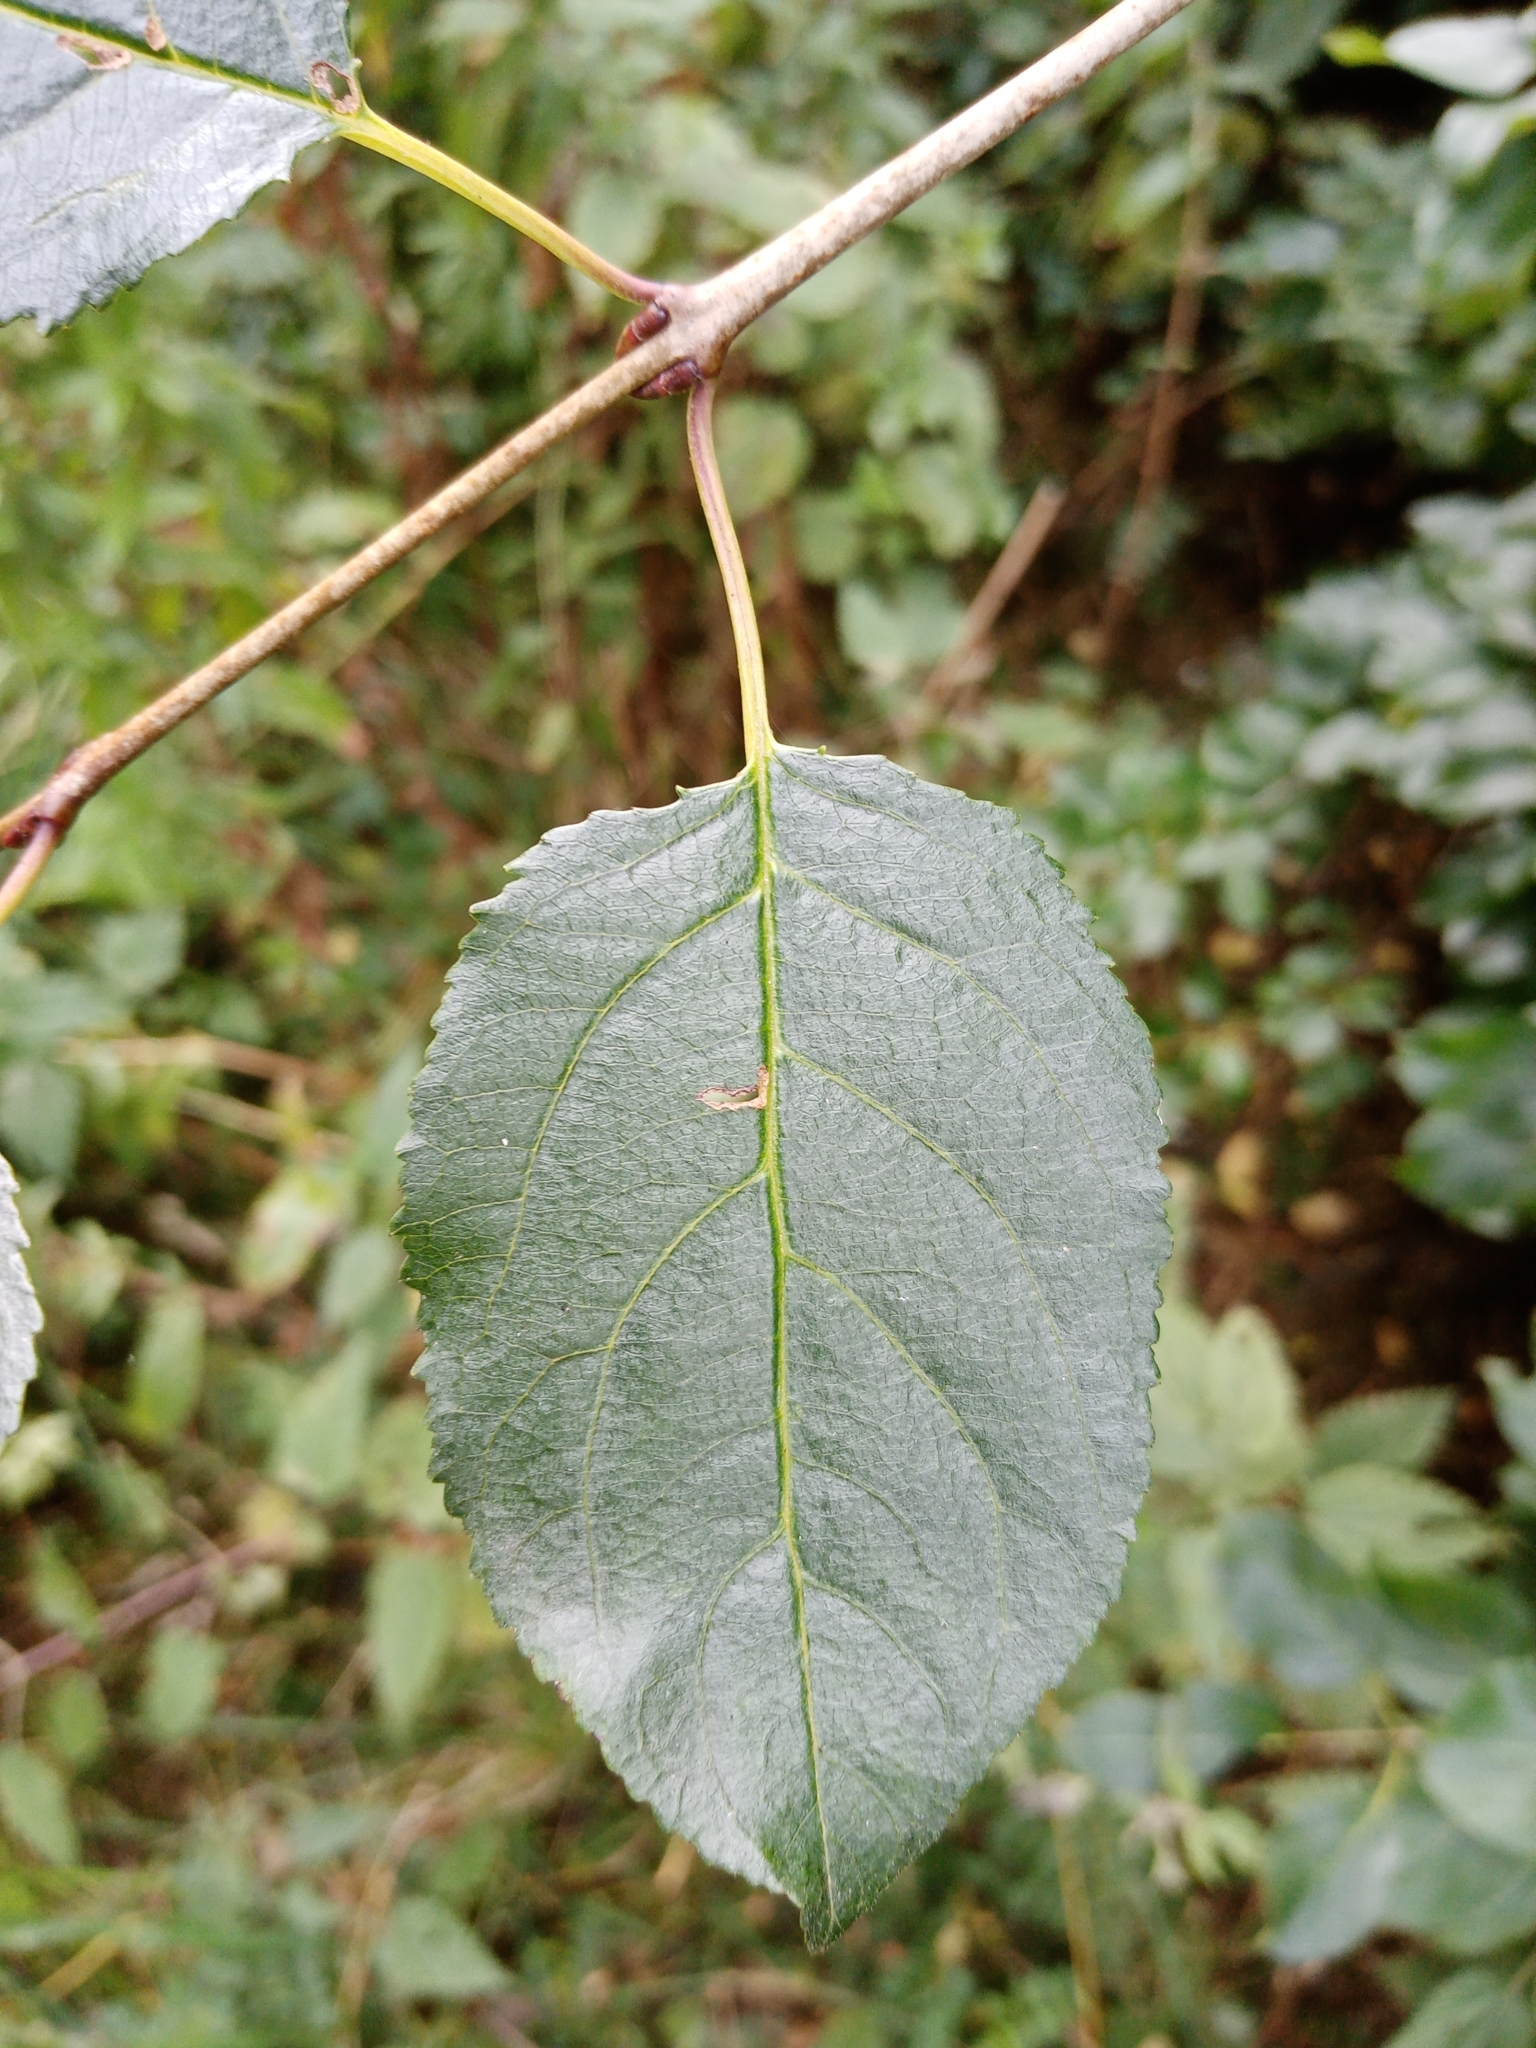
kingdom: Plantae
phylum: Tracheophyta
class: Magnoliopsida
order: Rosales
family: Rhamnaceae
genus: Rhamnus
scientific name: Rhamnus cathartica
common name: Common buckthorn
